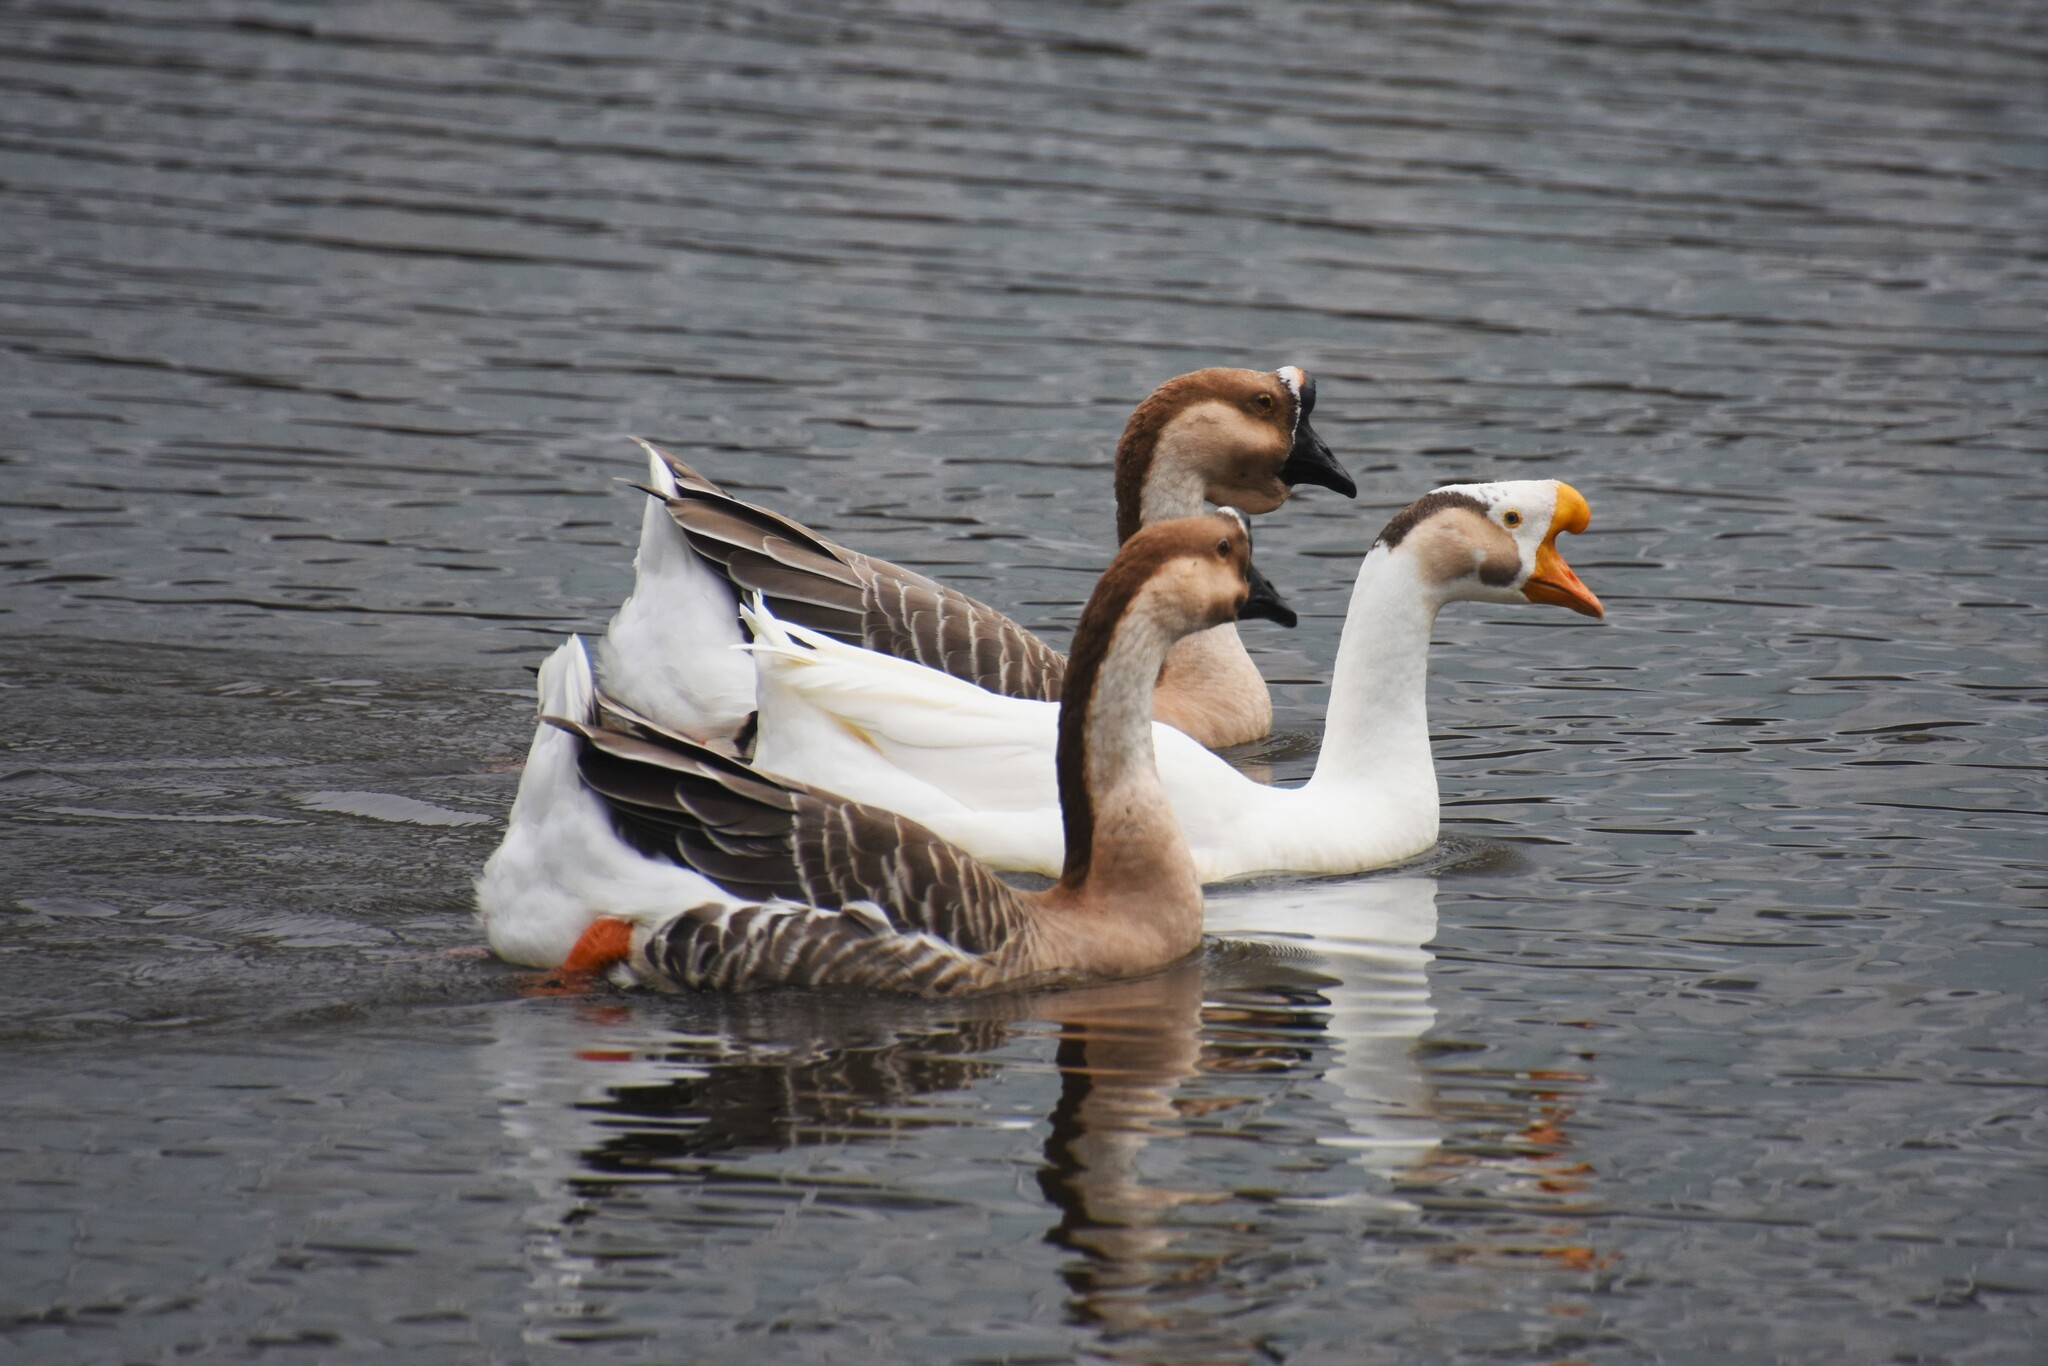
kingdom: Animalia
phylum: Chordata
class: Aves
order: Anseriformes
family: Anatidae
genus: Anser
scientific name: Anser cygnoides
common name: Swan goose
